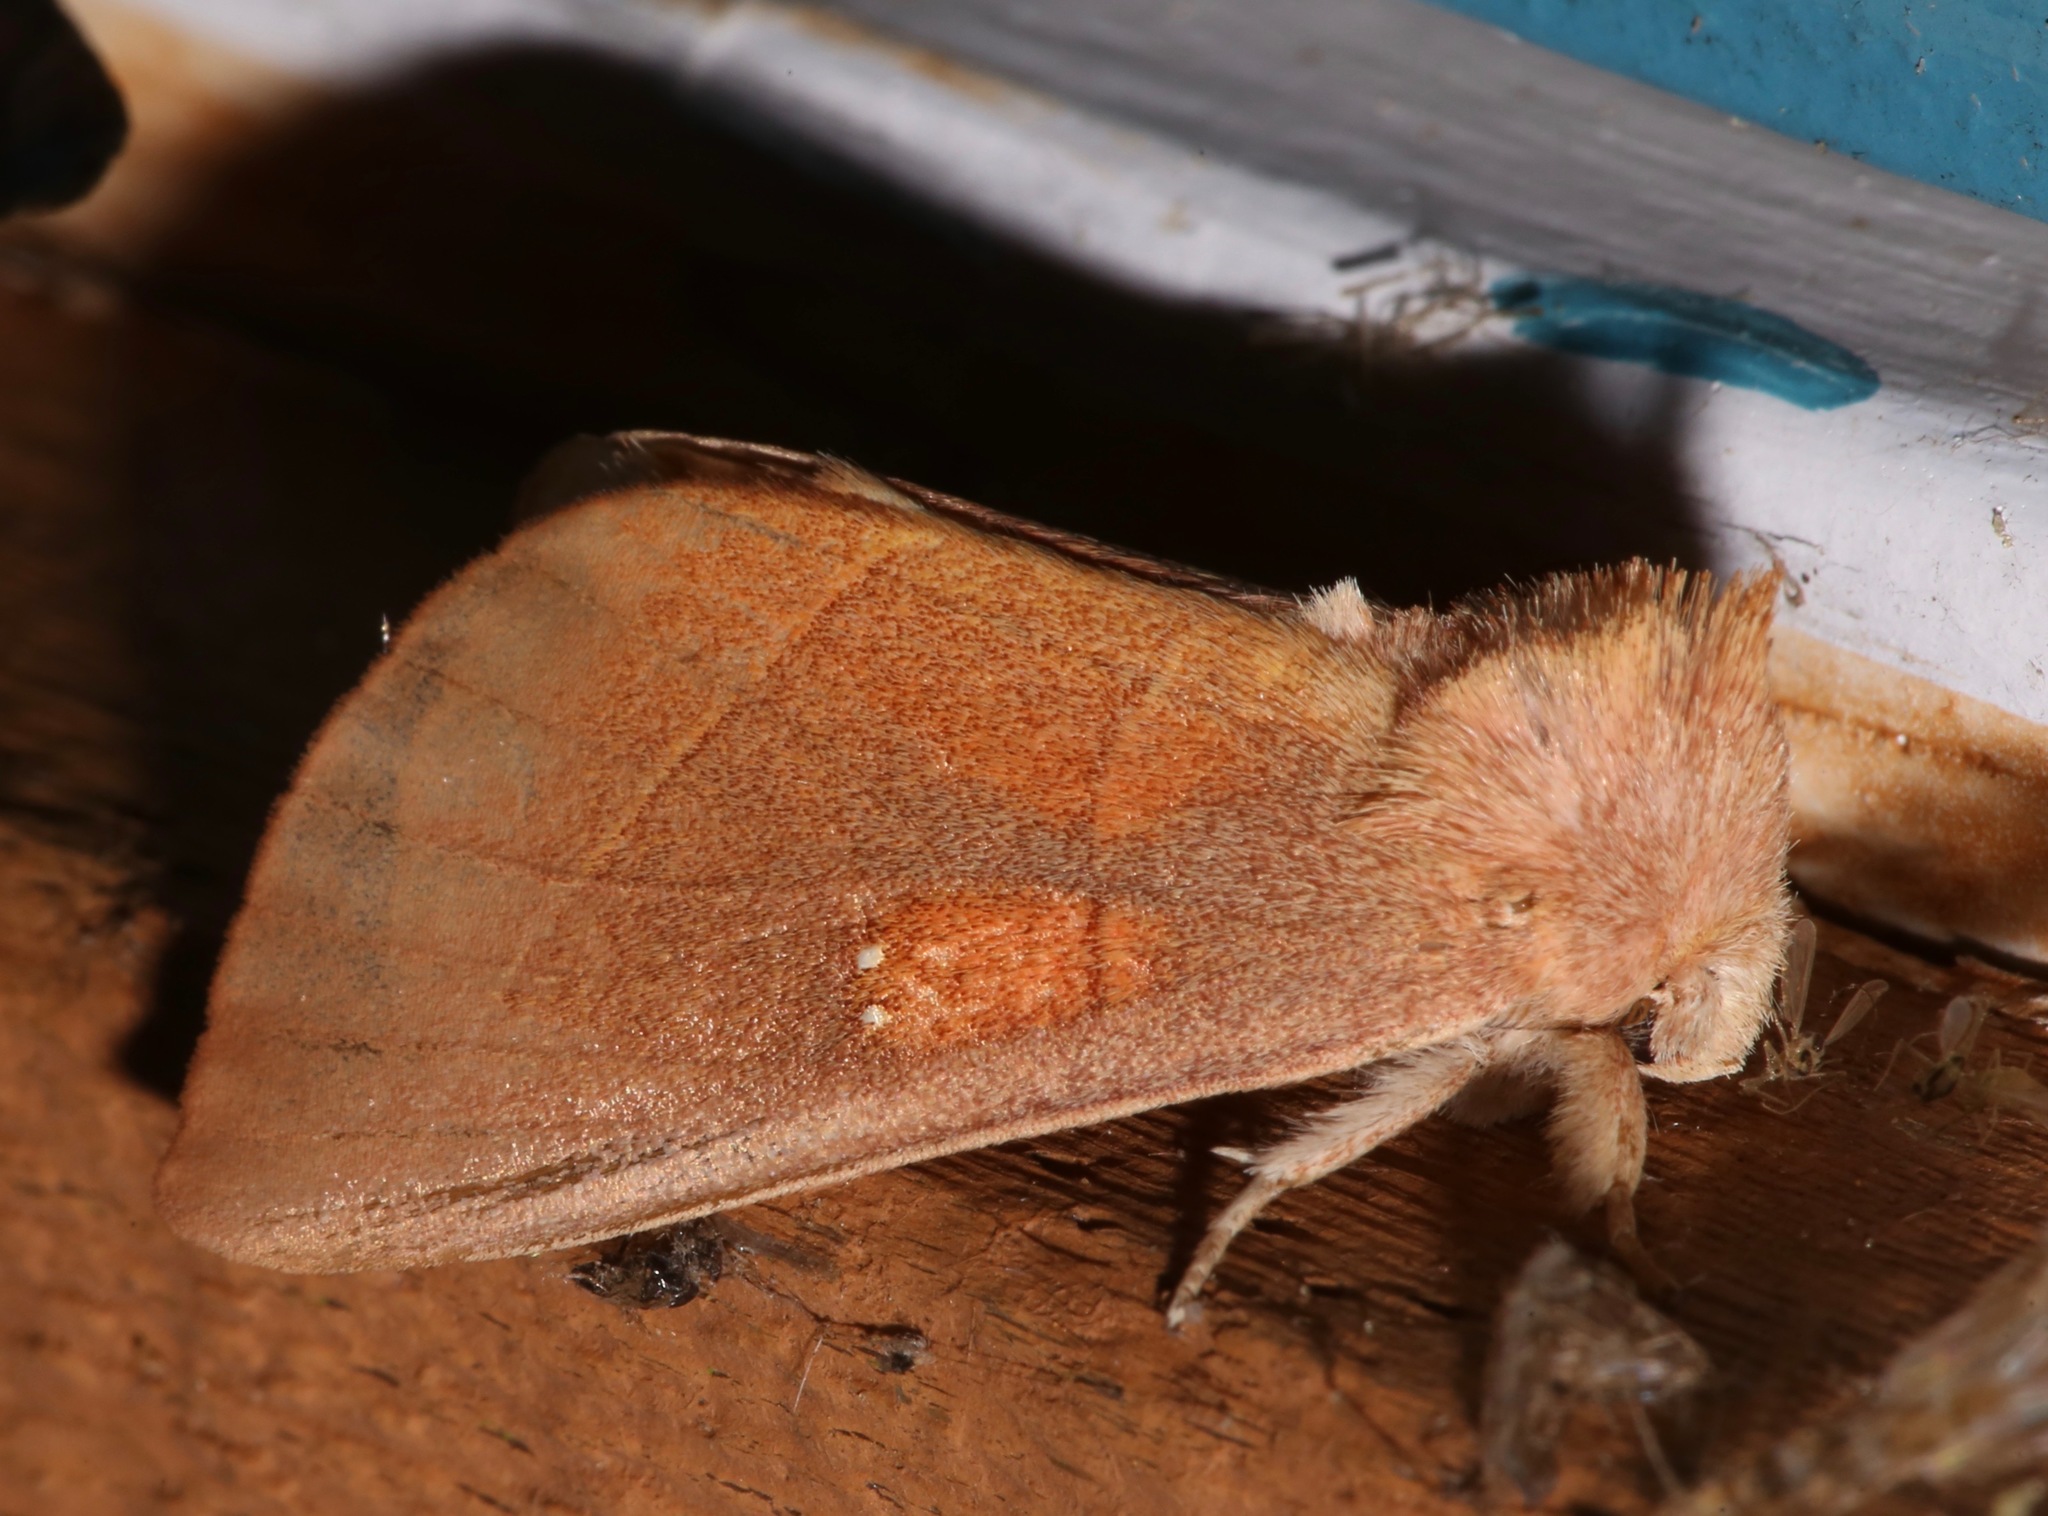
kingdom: Animalia
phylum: Arthropoda
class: Insecta
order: Lepidoptera
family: Notodontidae
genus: Nadata
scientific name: Nadata gibbosa
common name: White-dotted prominent
